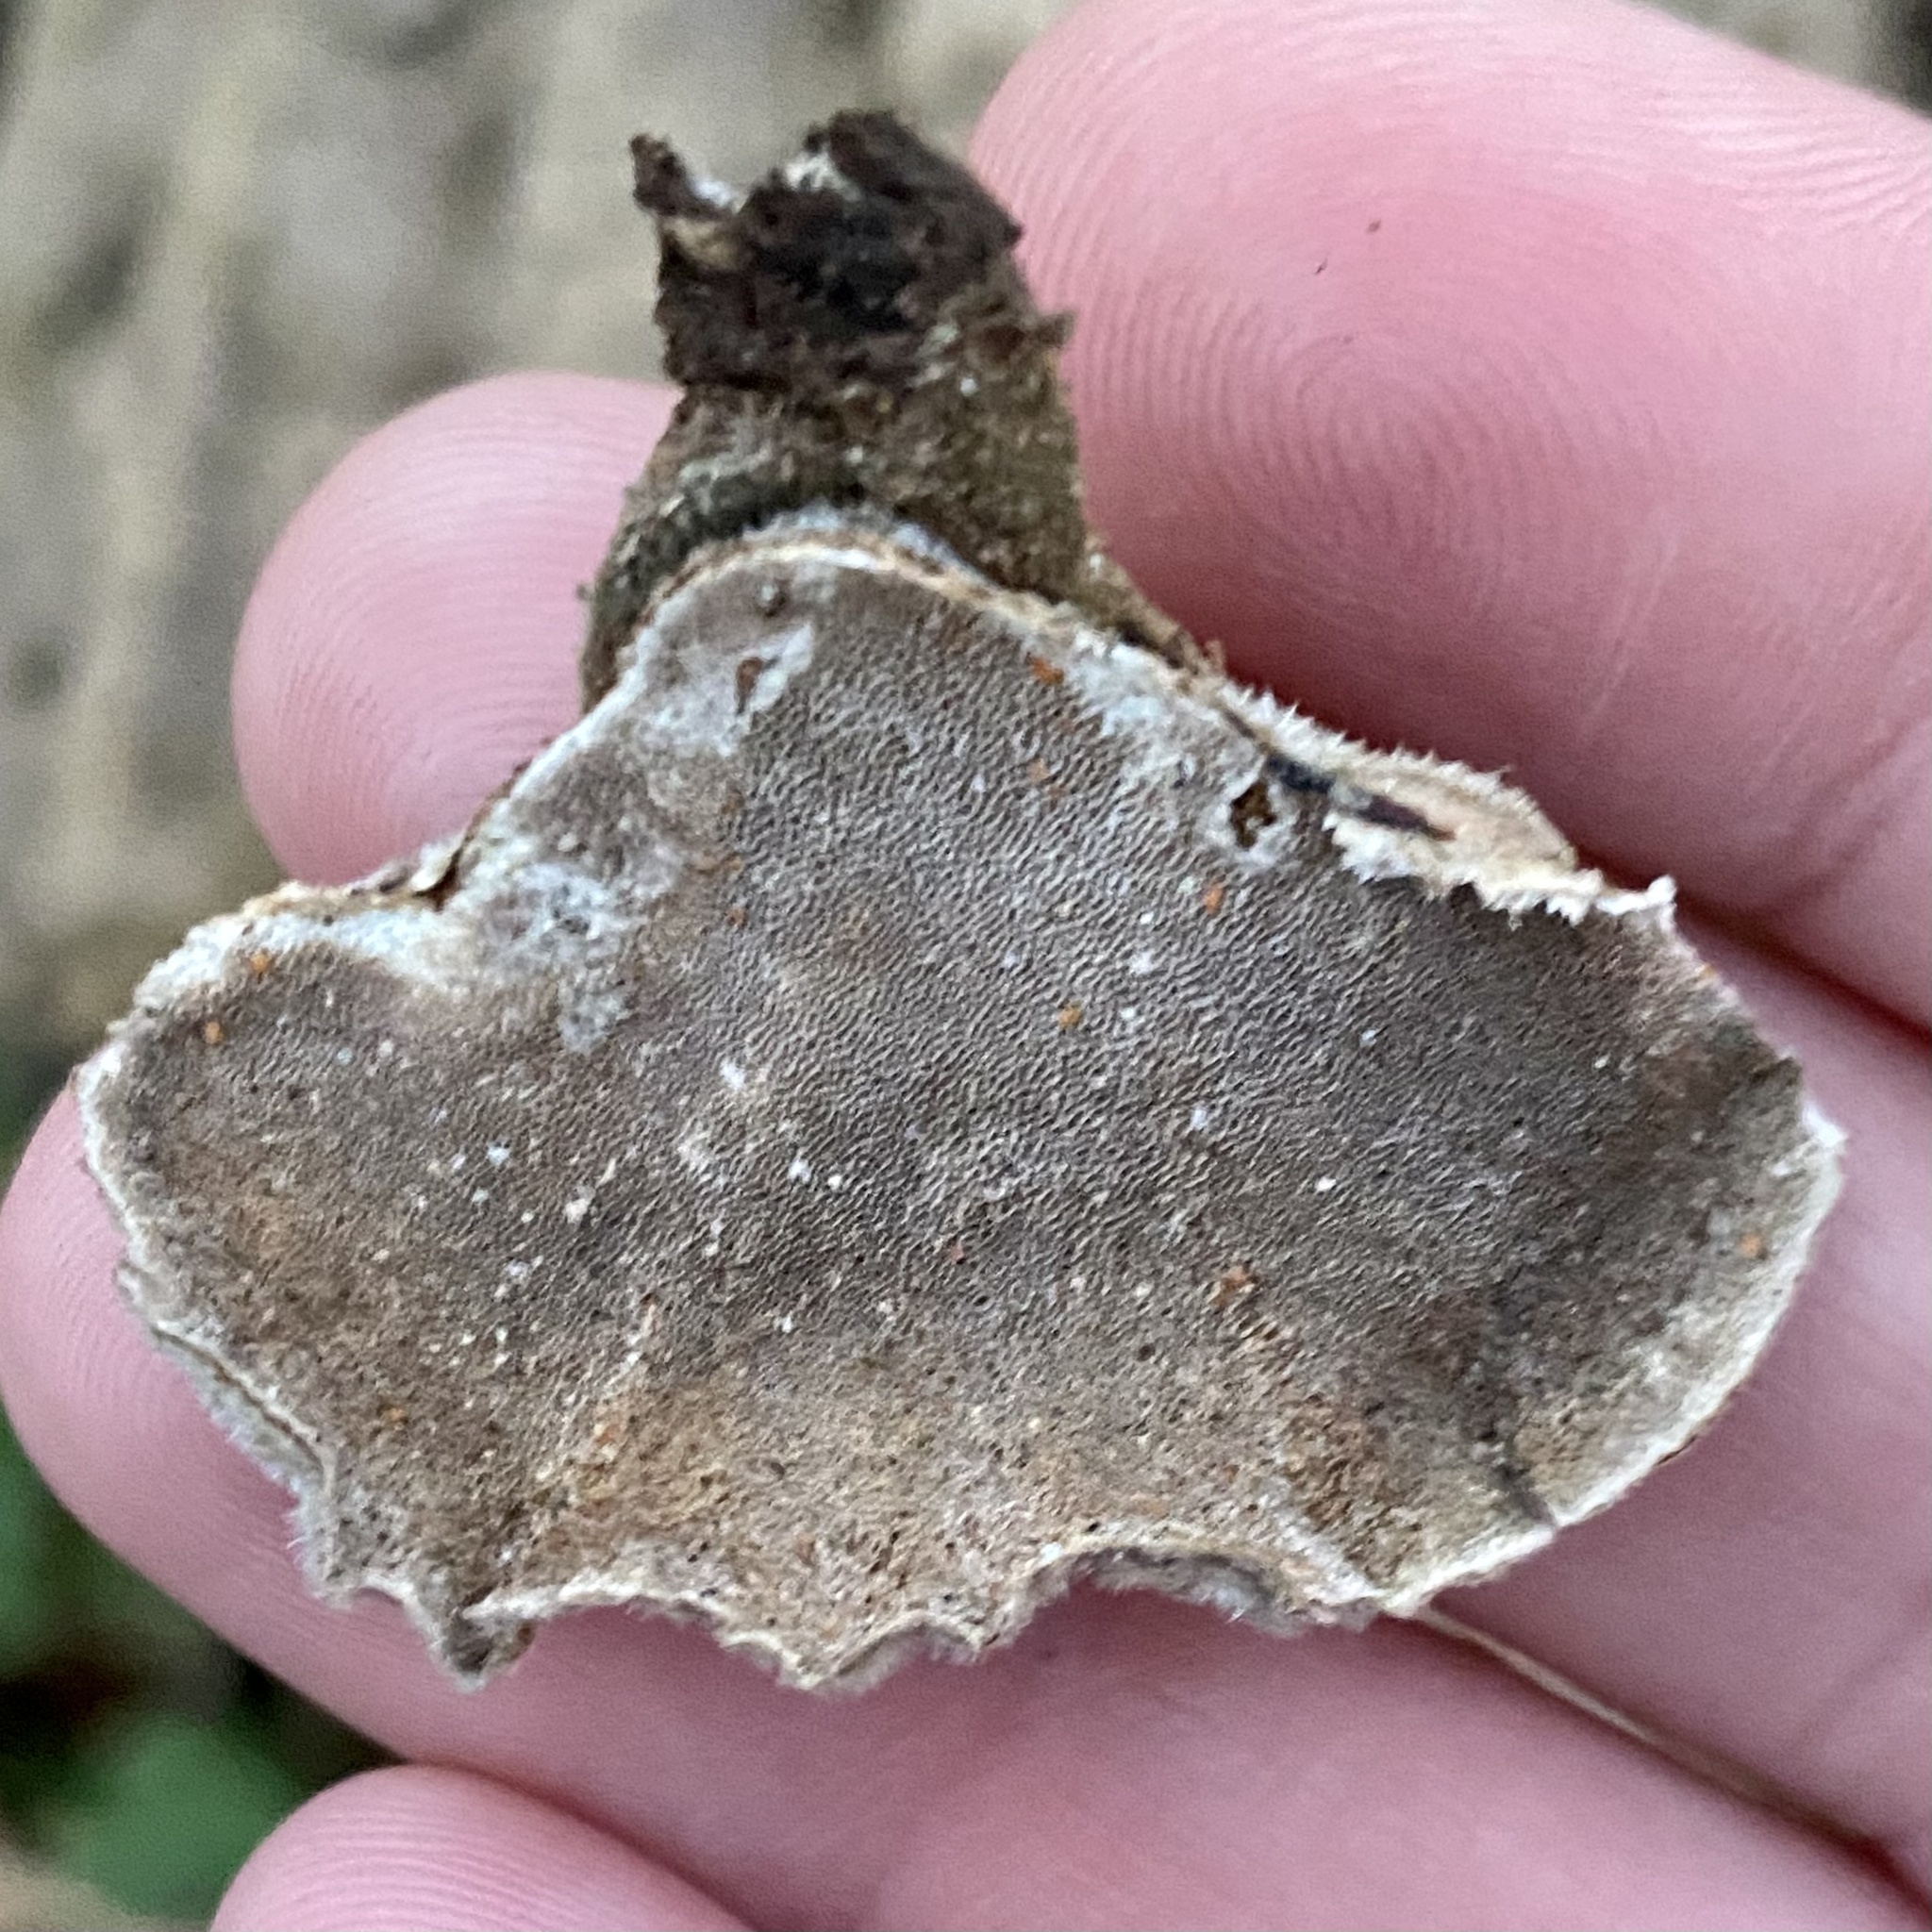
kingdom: Fungi
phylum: Basidiomycota
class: Agaricomycetes
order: Polyporales
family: Polyporaceae
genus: Trametes
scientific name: Trametes versicolor
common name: Turkeytail
